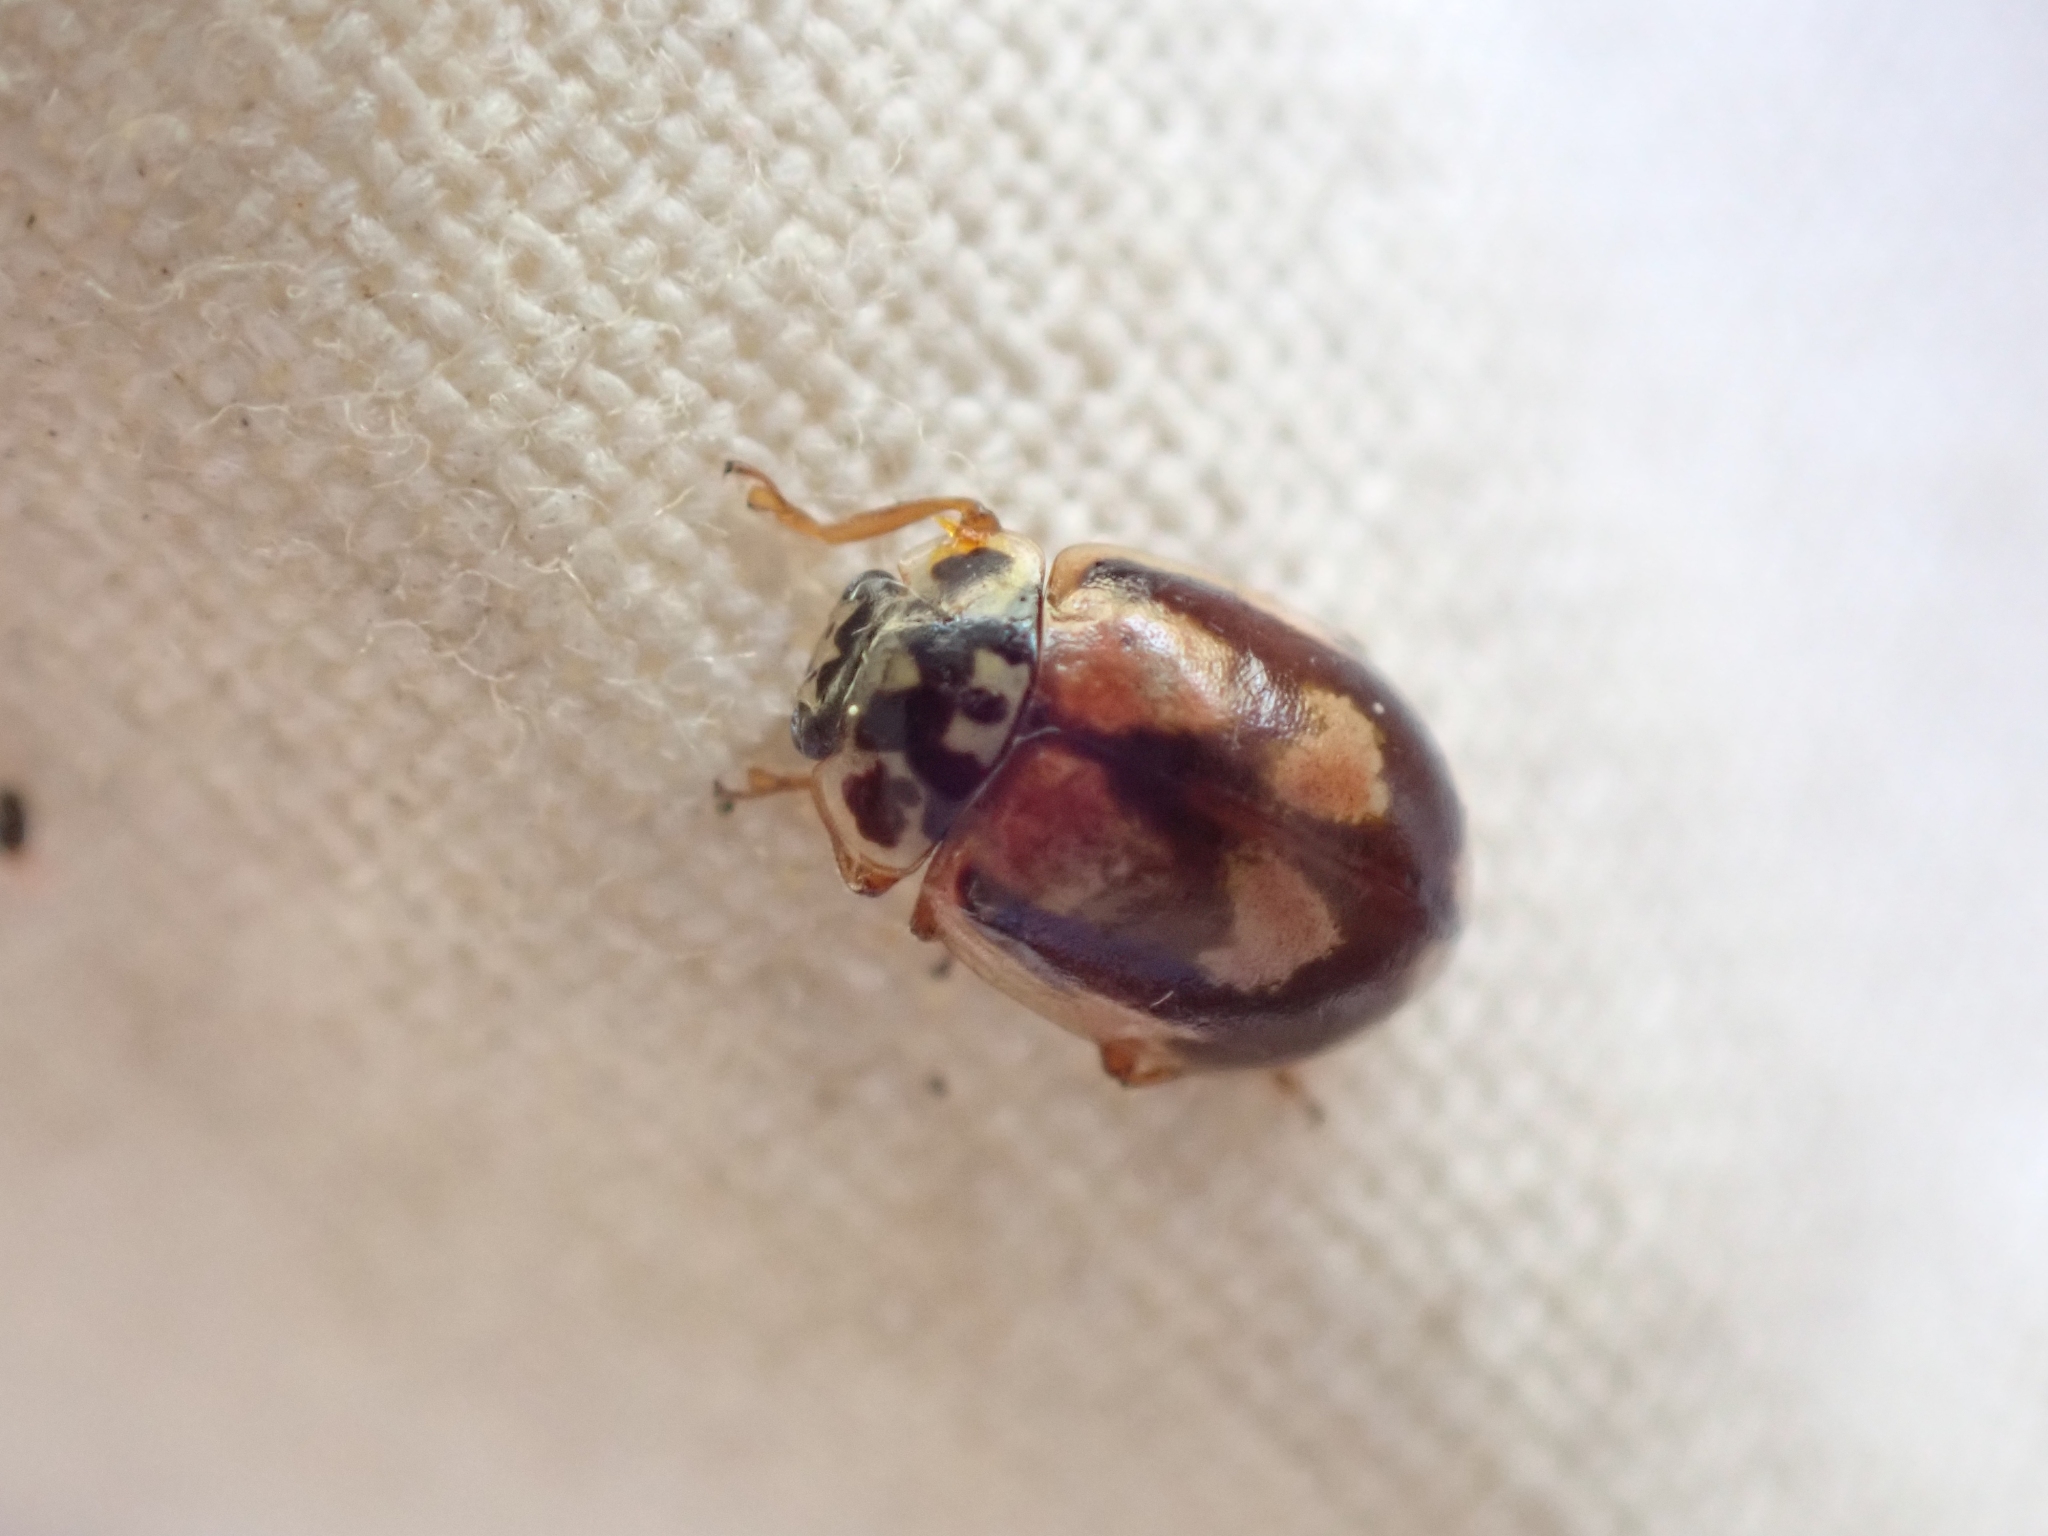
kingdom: Animalia
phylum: Arthropoda
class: Insecta
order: Coleoptera
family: Coccinellidae
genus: Mulsantina
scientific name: Mulsantina picta
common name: Painted ladybird
